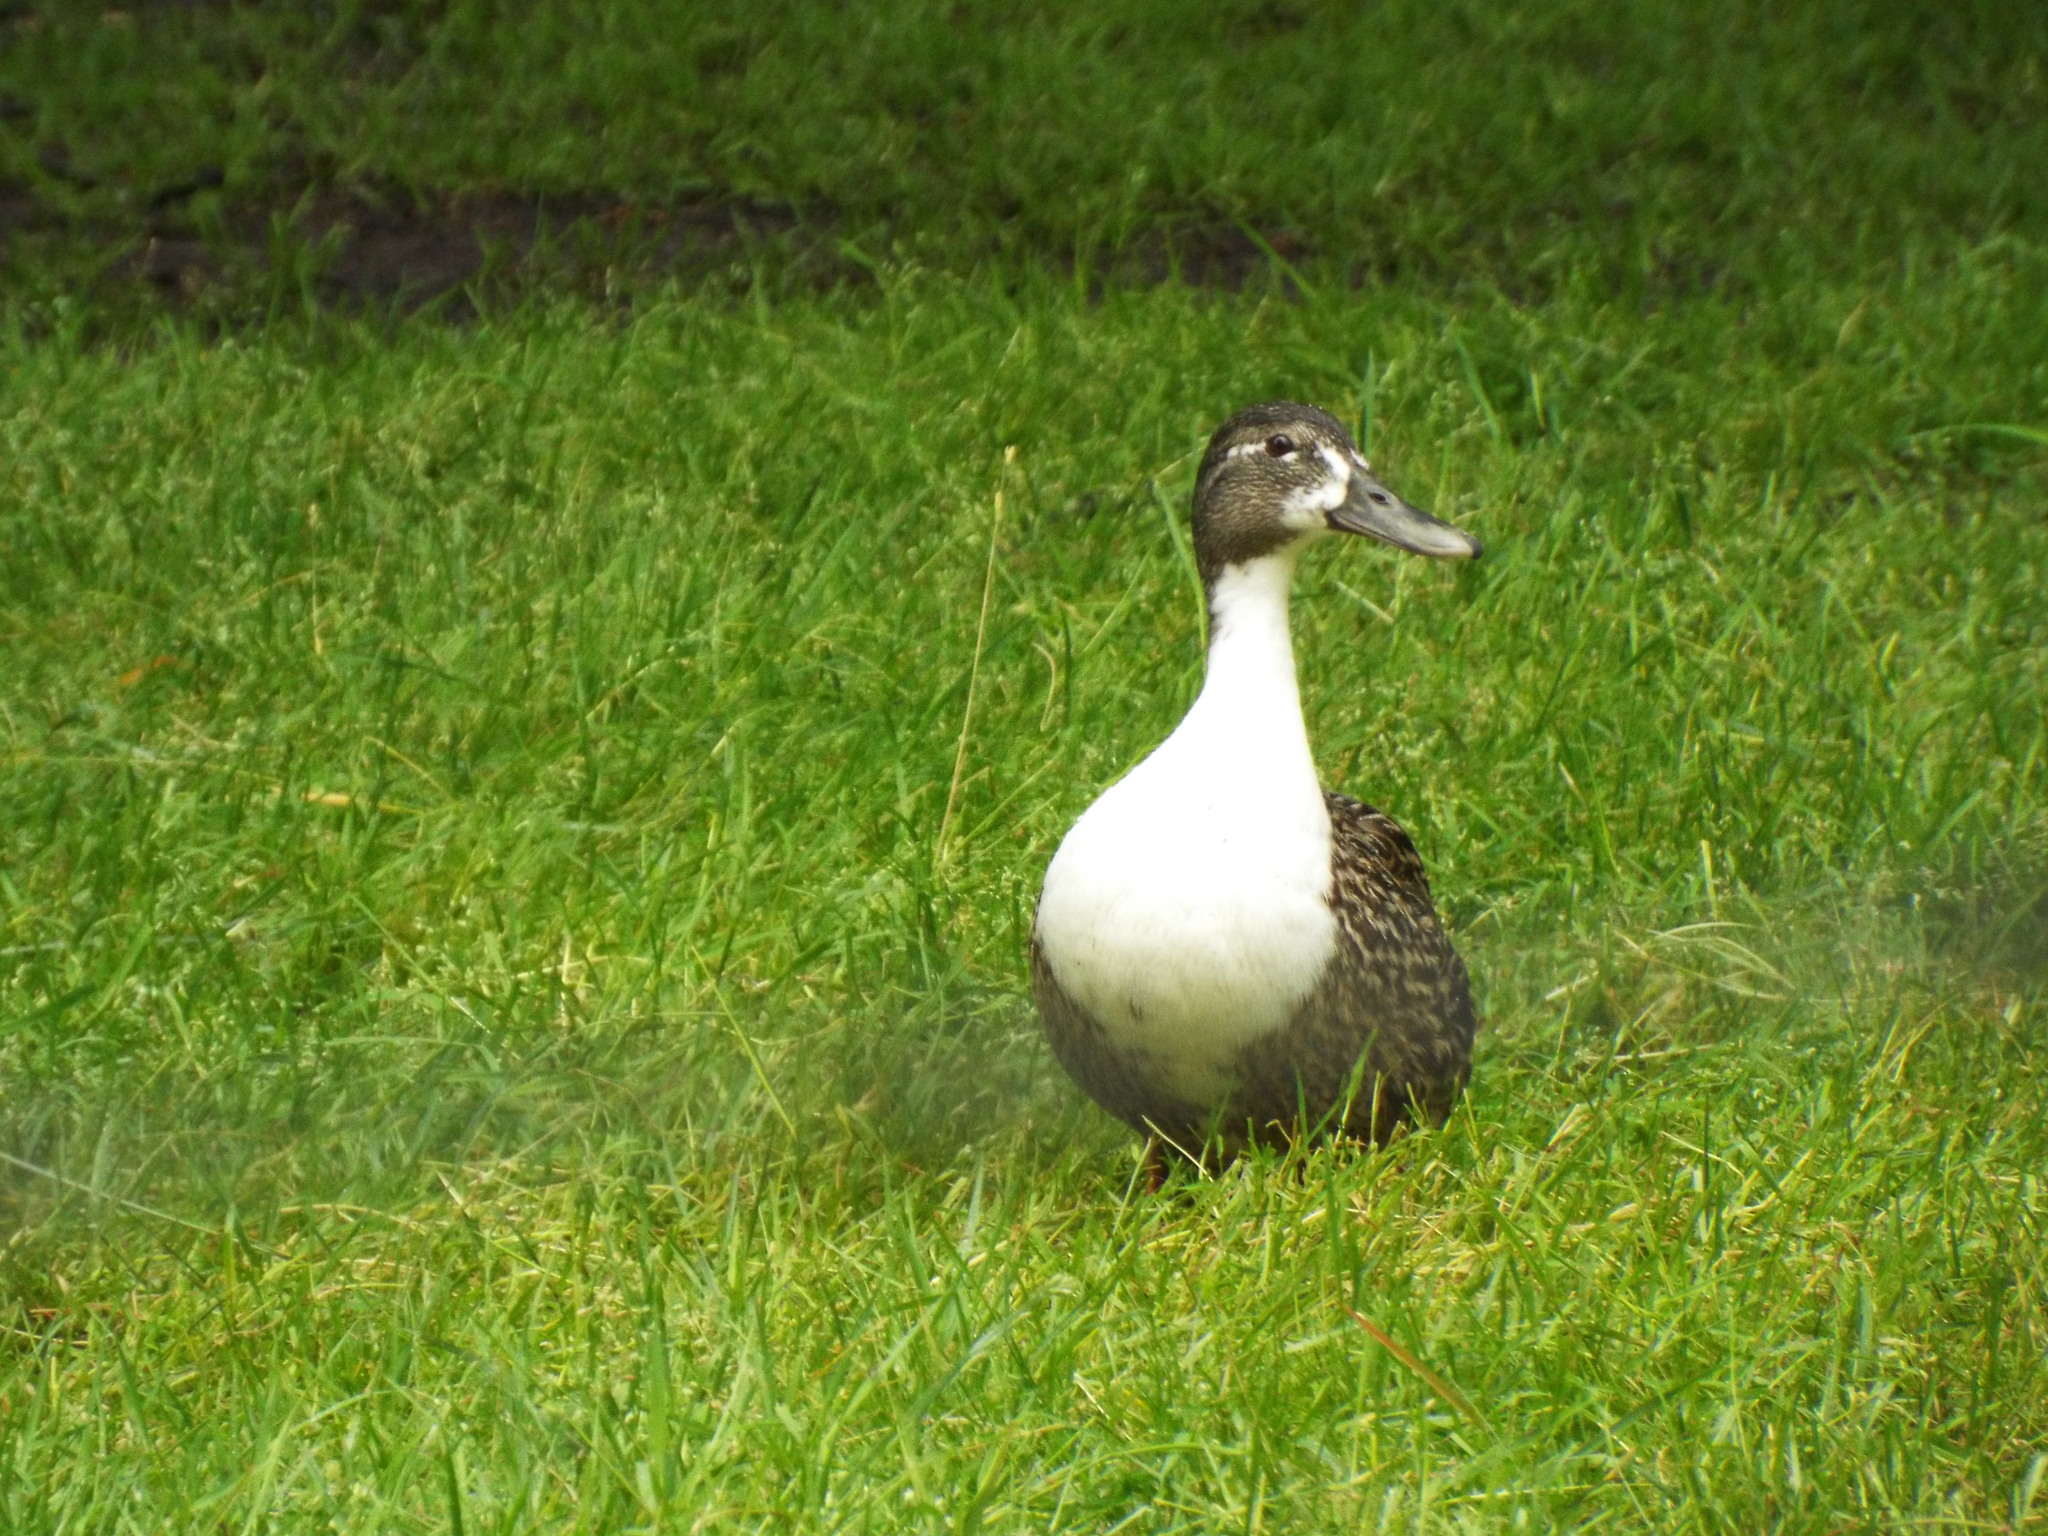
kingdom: Animalia
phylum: Chordata
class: Aves
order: Anseriformes
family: Anatidae
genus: Anas
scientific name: Anas platyrhynchos
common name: Mallard
